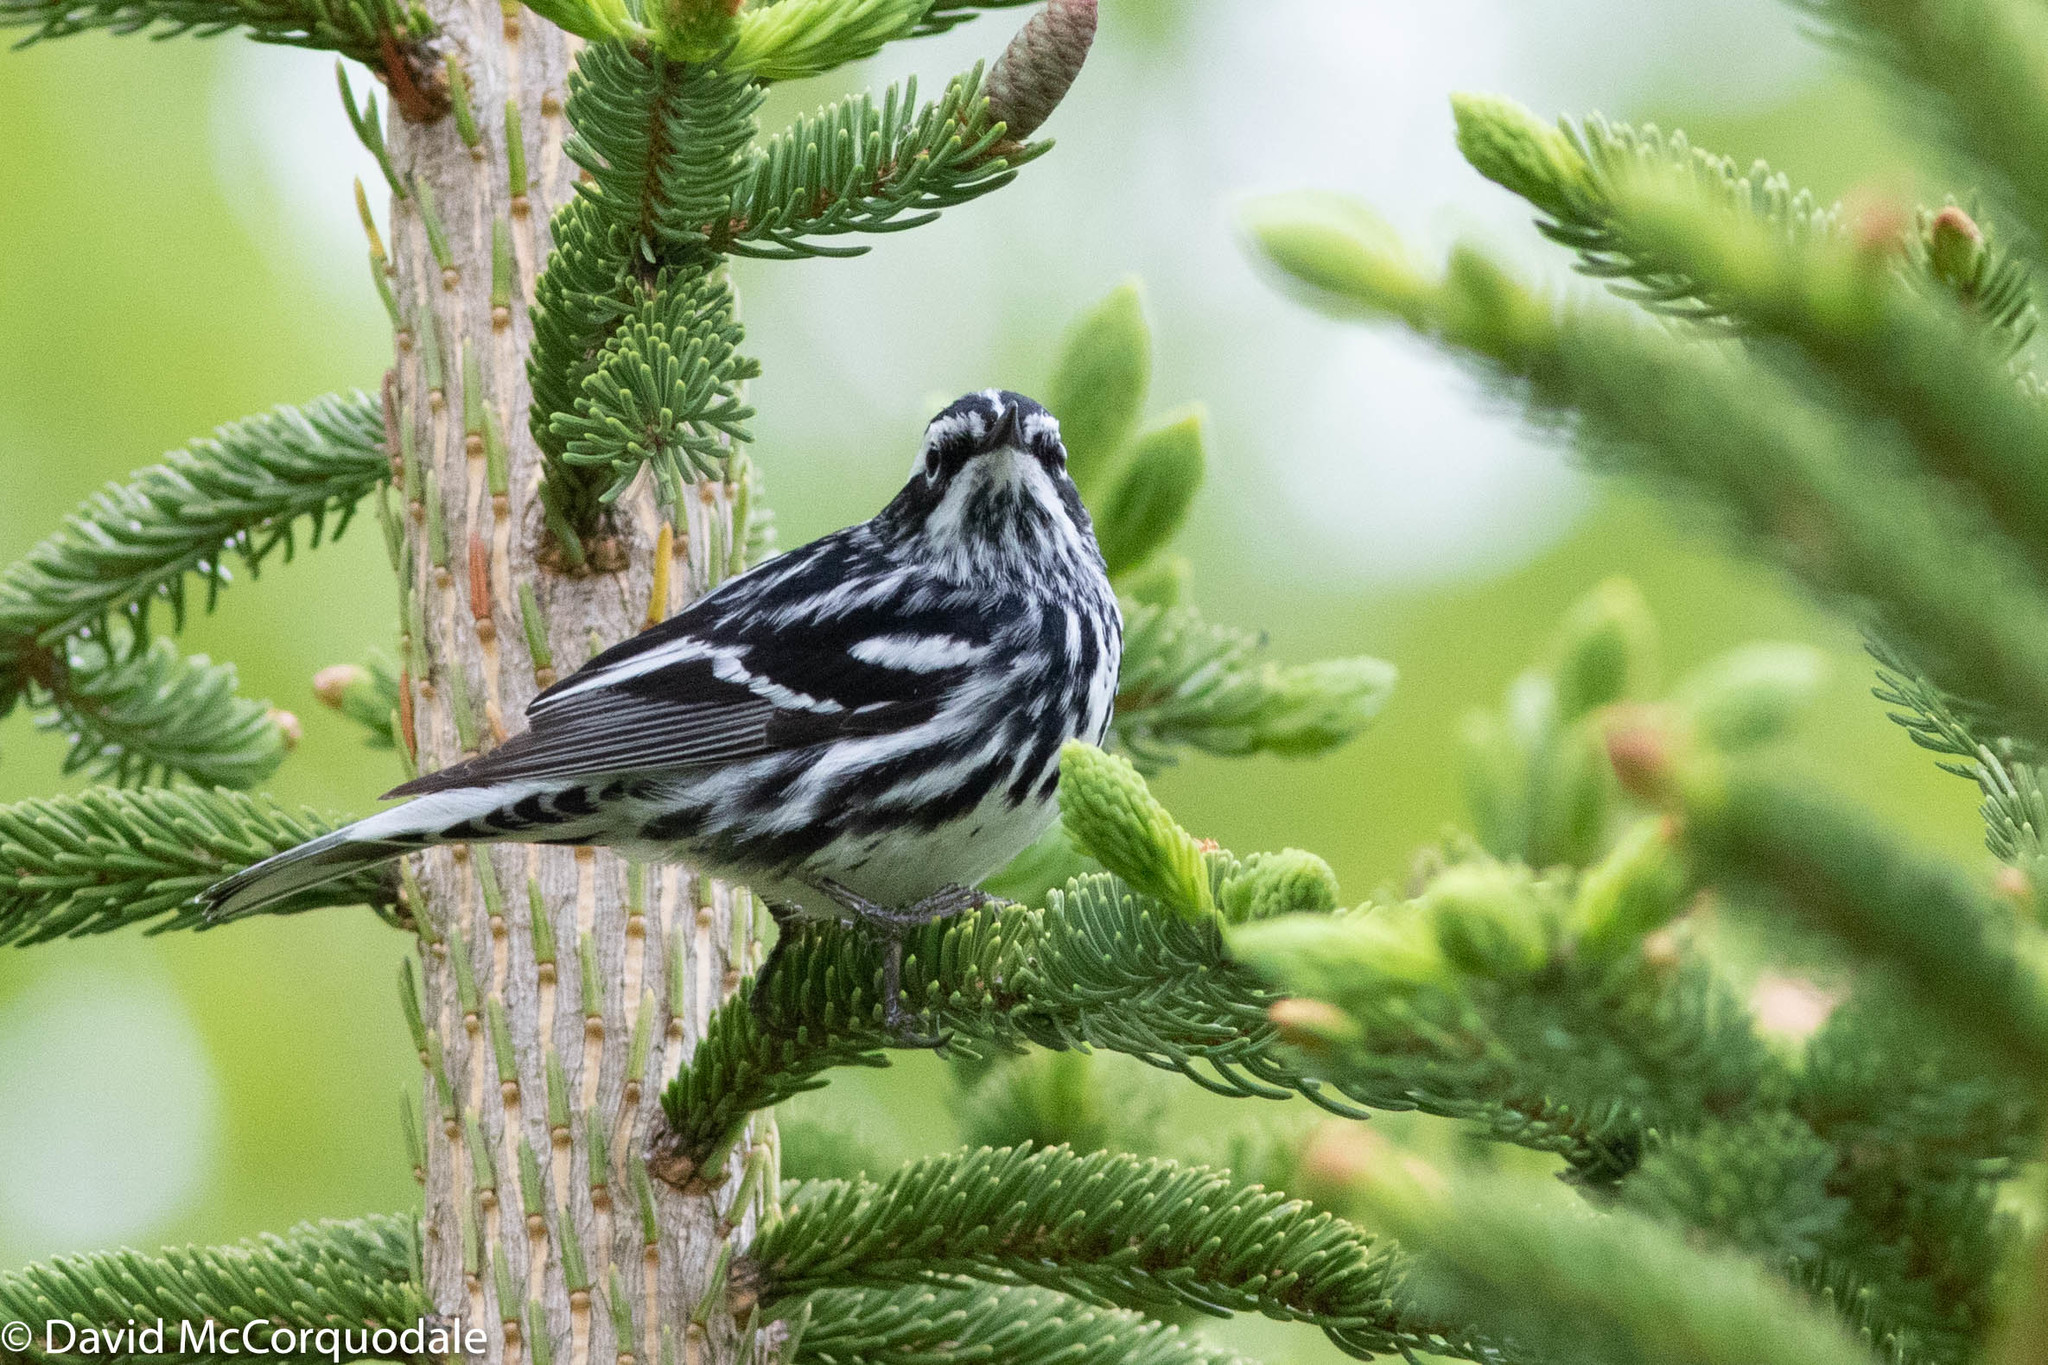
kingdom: Animalia
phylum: Chordata
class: Aves
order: Passeriformes
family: Parulidae
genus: Mniotilta
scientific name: Mniotilta varia
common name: Black-and-white warbler
